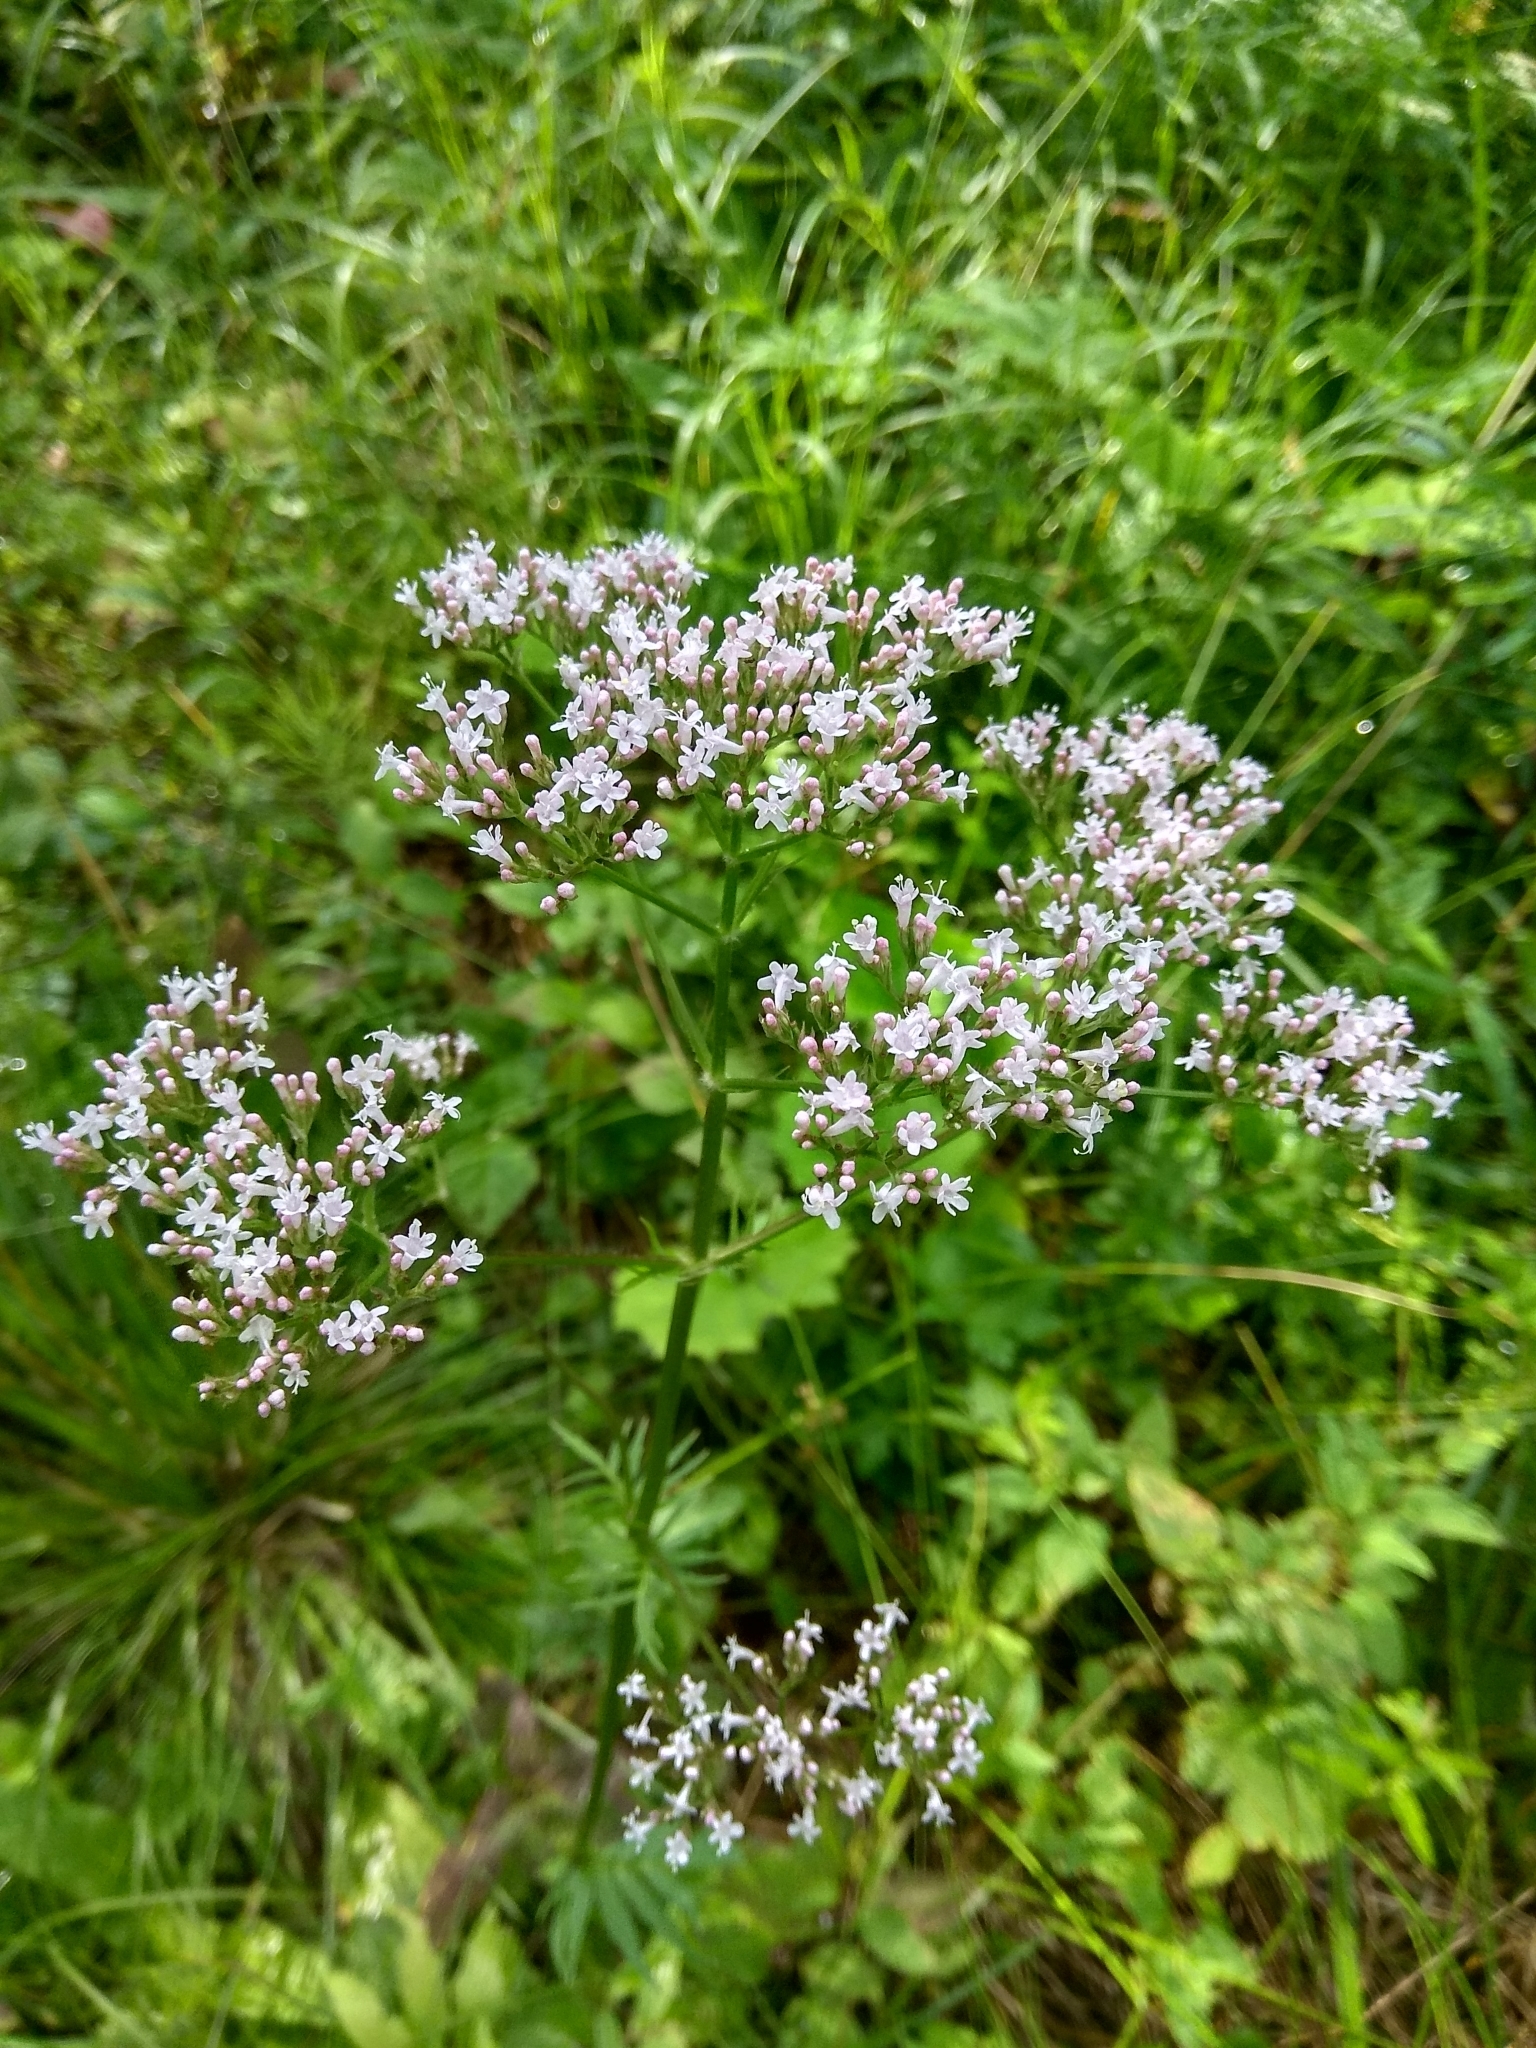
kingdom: Plantae
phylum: Tracheophyta
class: Magnoliopsida
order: Dipsacales
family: Caprifoliaceae
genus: Valeriana
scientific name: Valeriana officinalis
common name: Common valerian
